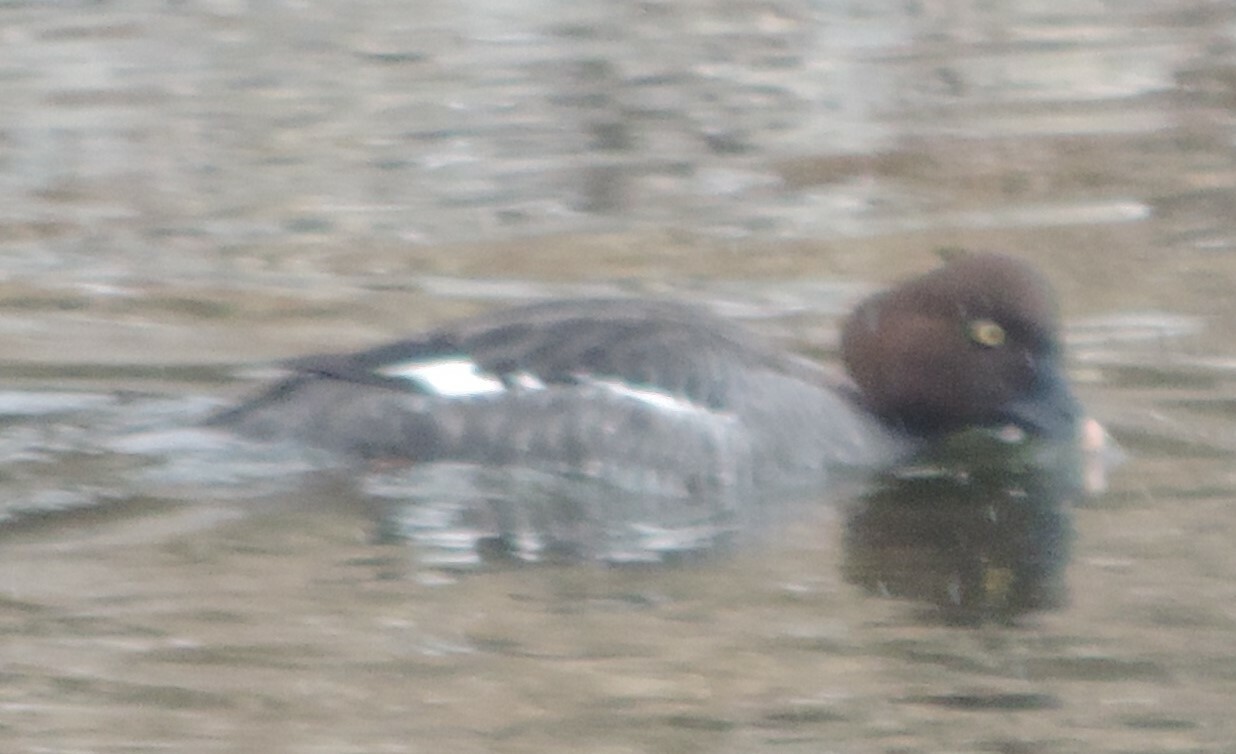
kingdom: Animalia
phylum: Chordata
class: Aves
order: Anseriformes
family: Anatidae
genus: Bucephala
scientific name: Bucephala clangula
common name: Common goldeneye
